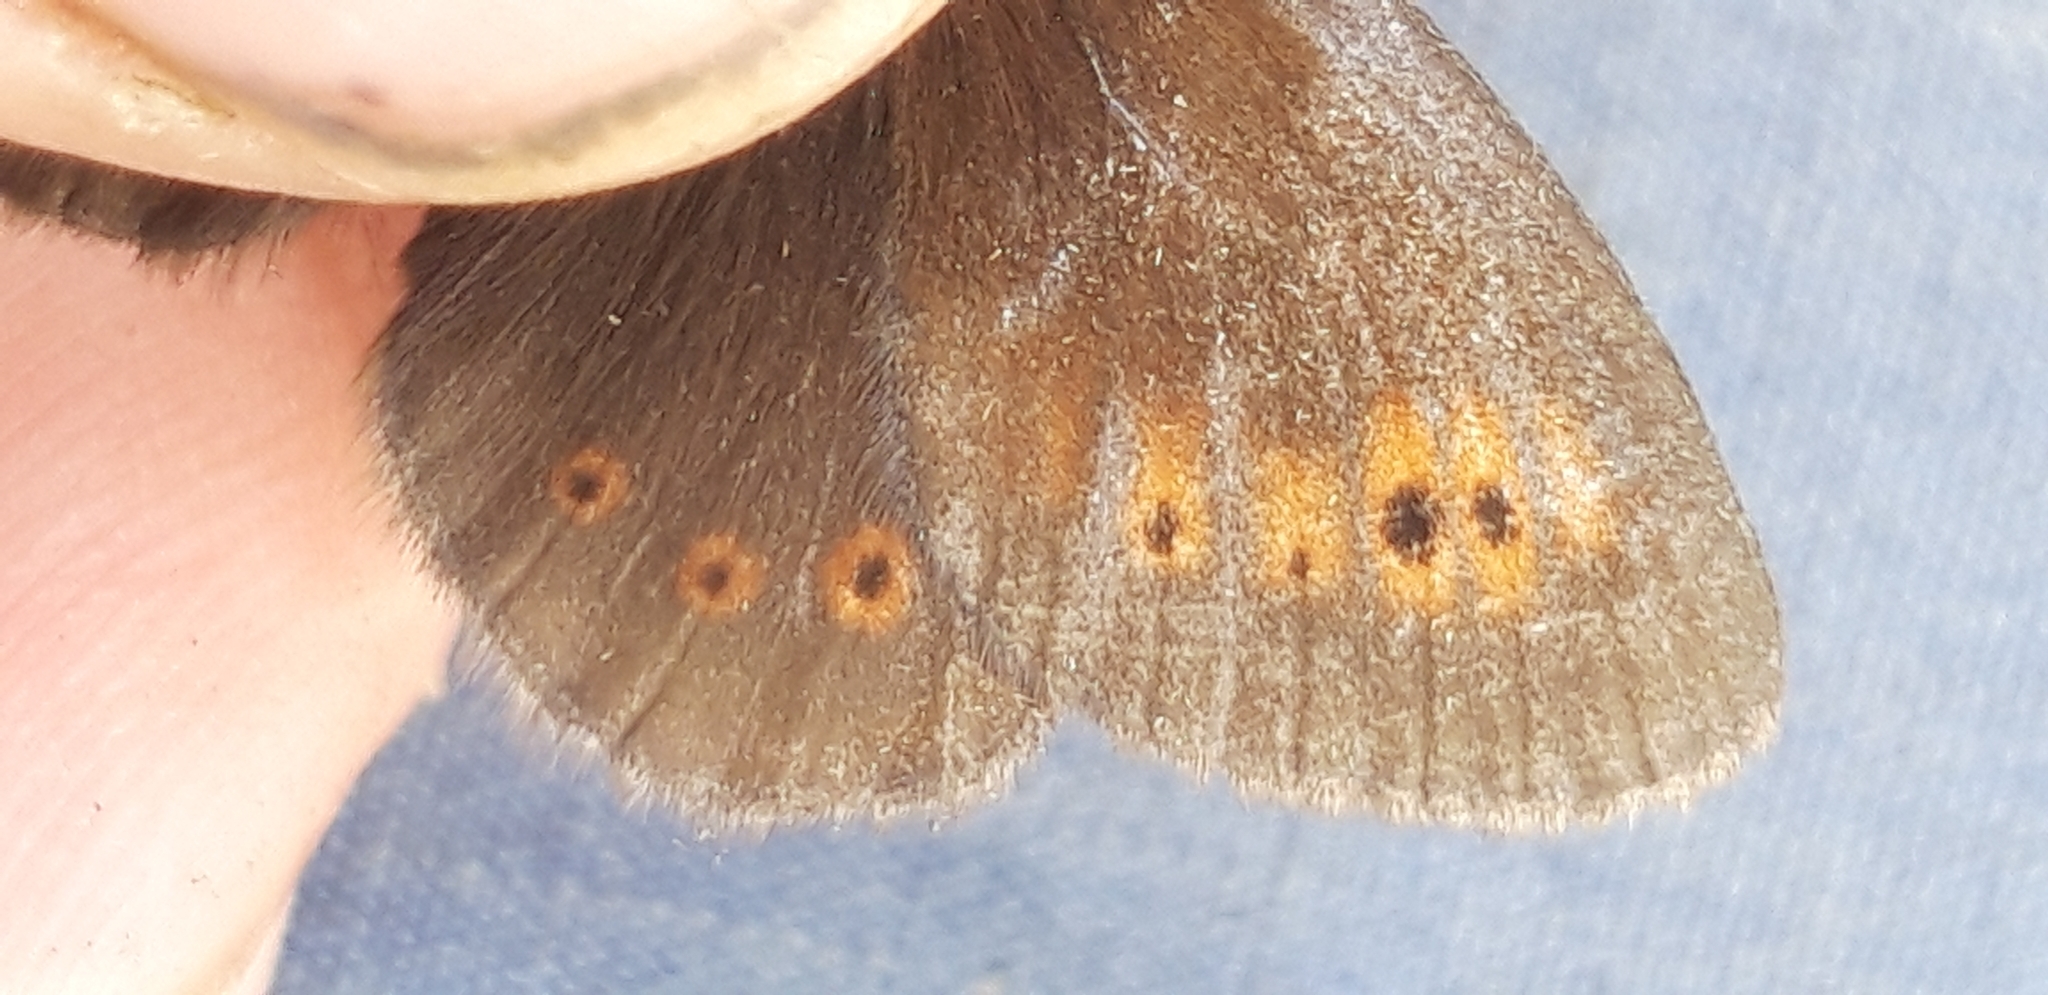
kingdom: Animalia
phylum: Arthropoda
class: Insecta
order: Lepidoptera
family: Nymphalidae
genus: Erebia
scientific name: Erebia epiphron
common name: Mountain ringlet
